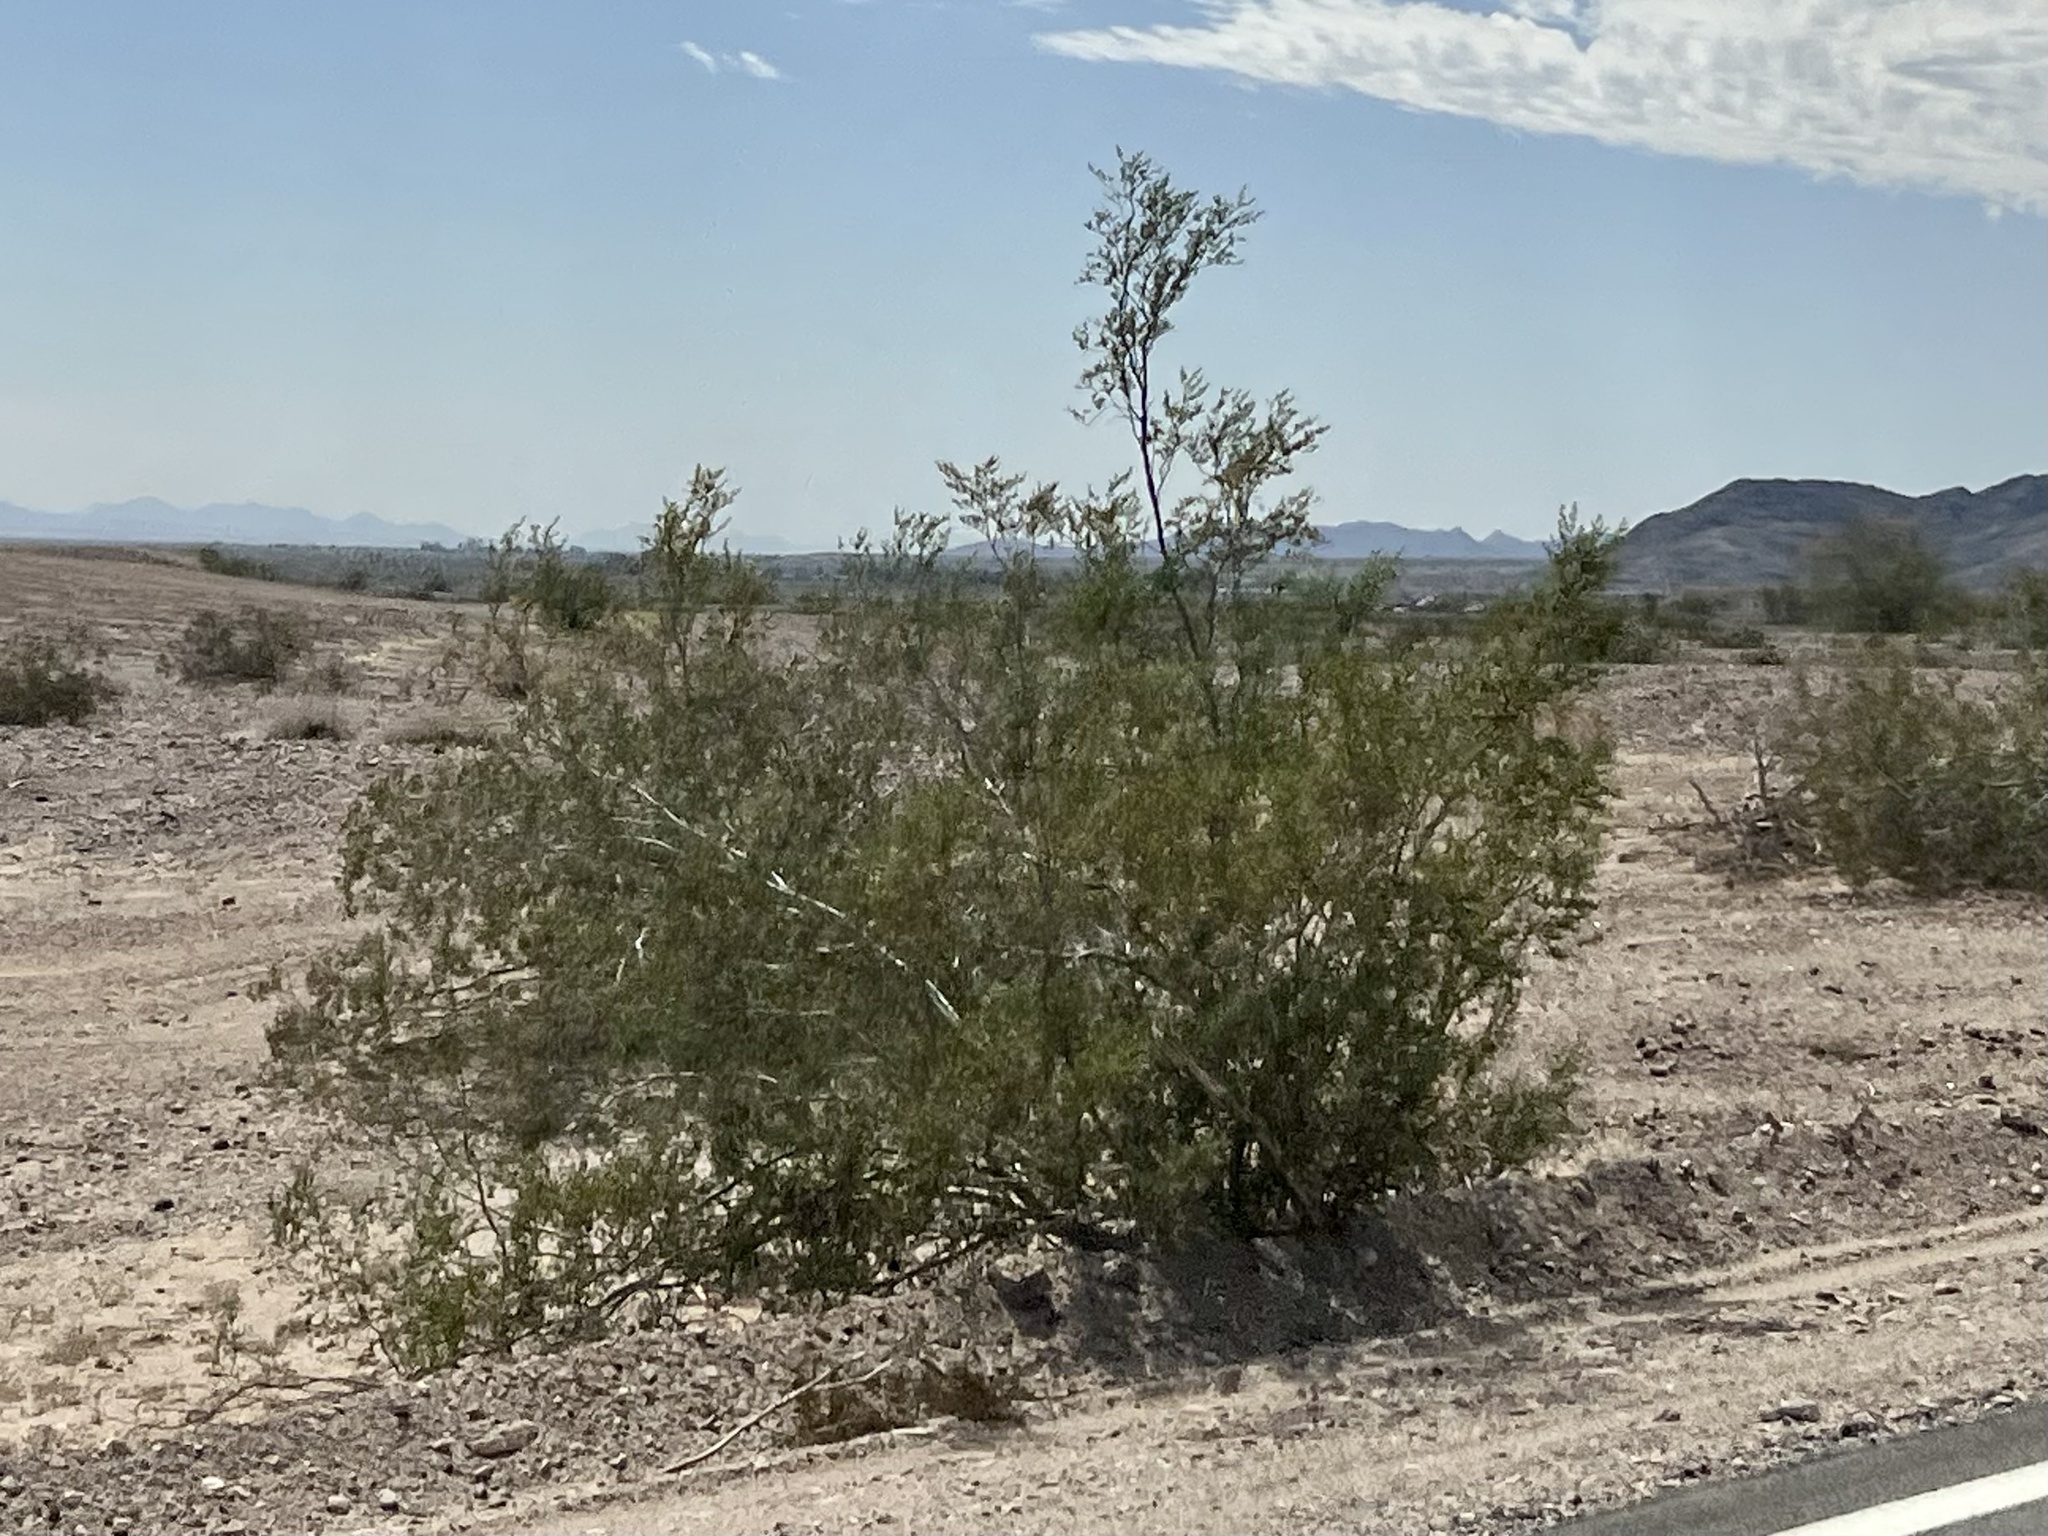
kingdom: Plantae
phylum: Tracheophyta
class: Magnoliopsida
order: Zygophyllales
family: Zygophyllaceae
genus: Larrea
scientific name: Larrea tridentata
